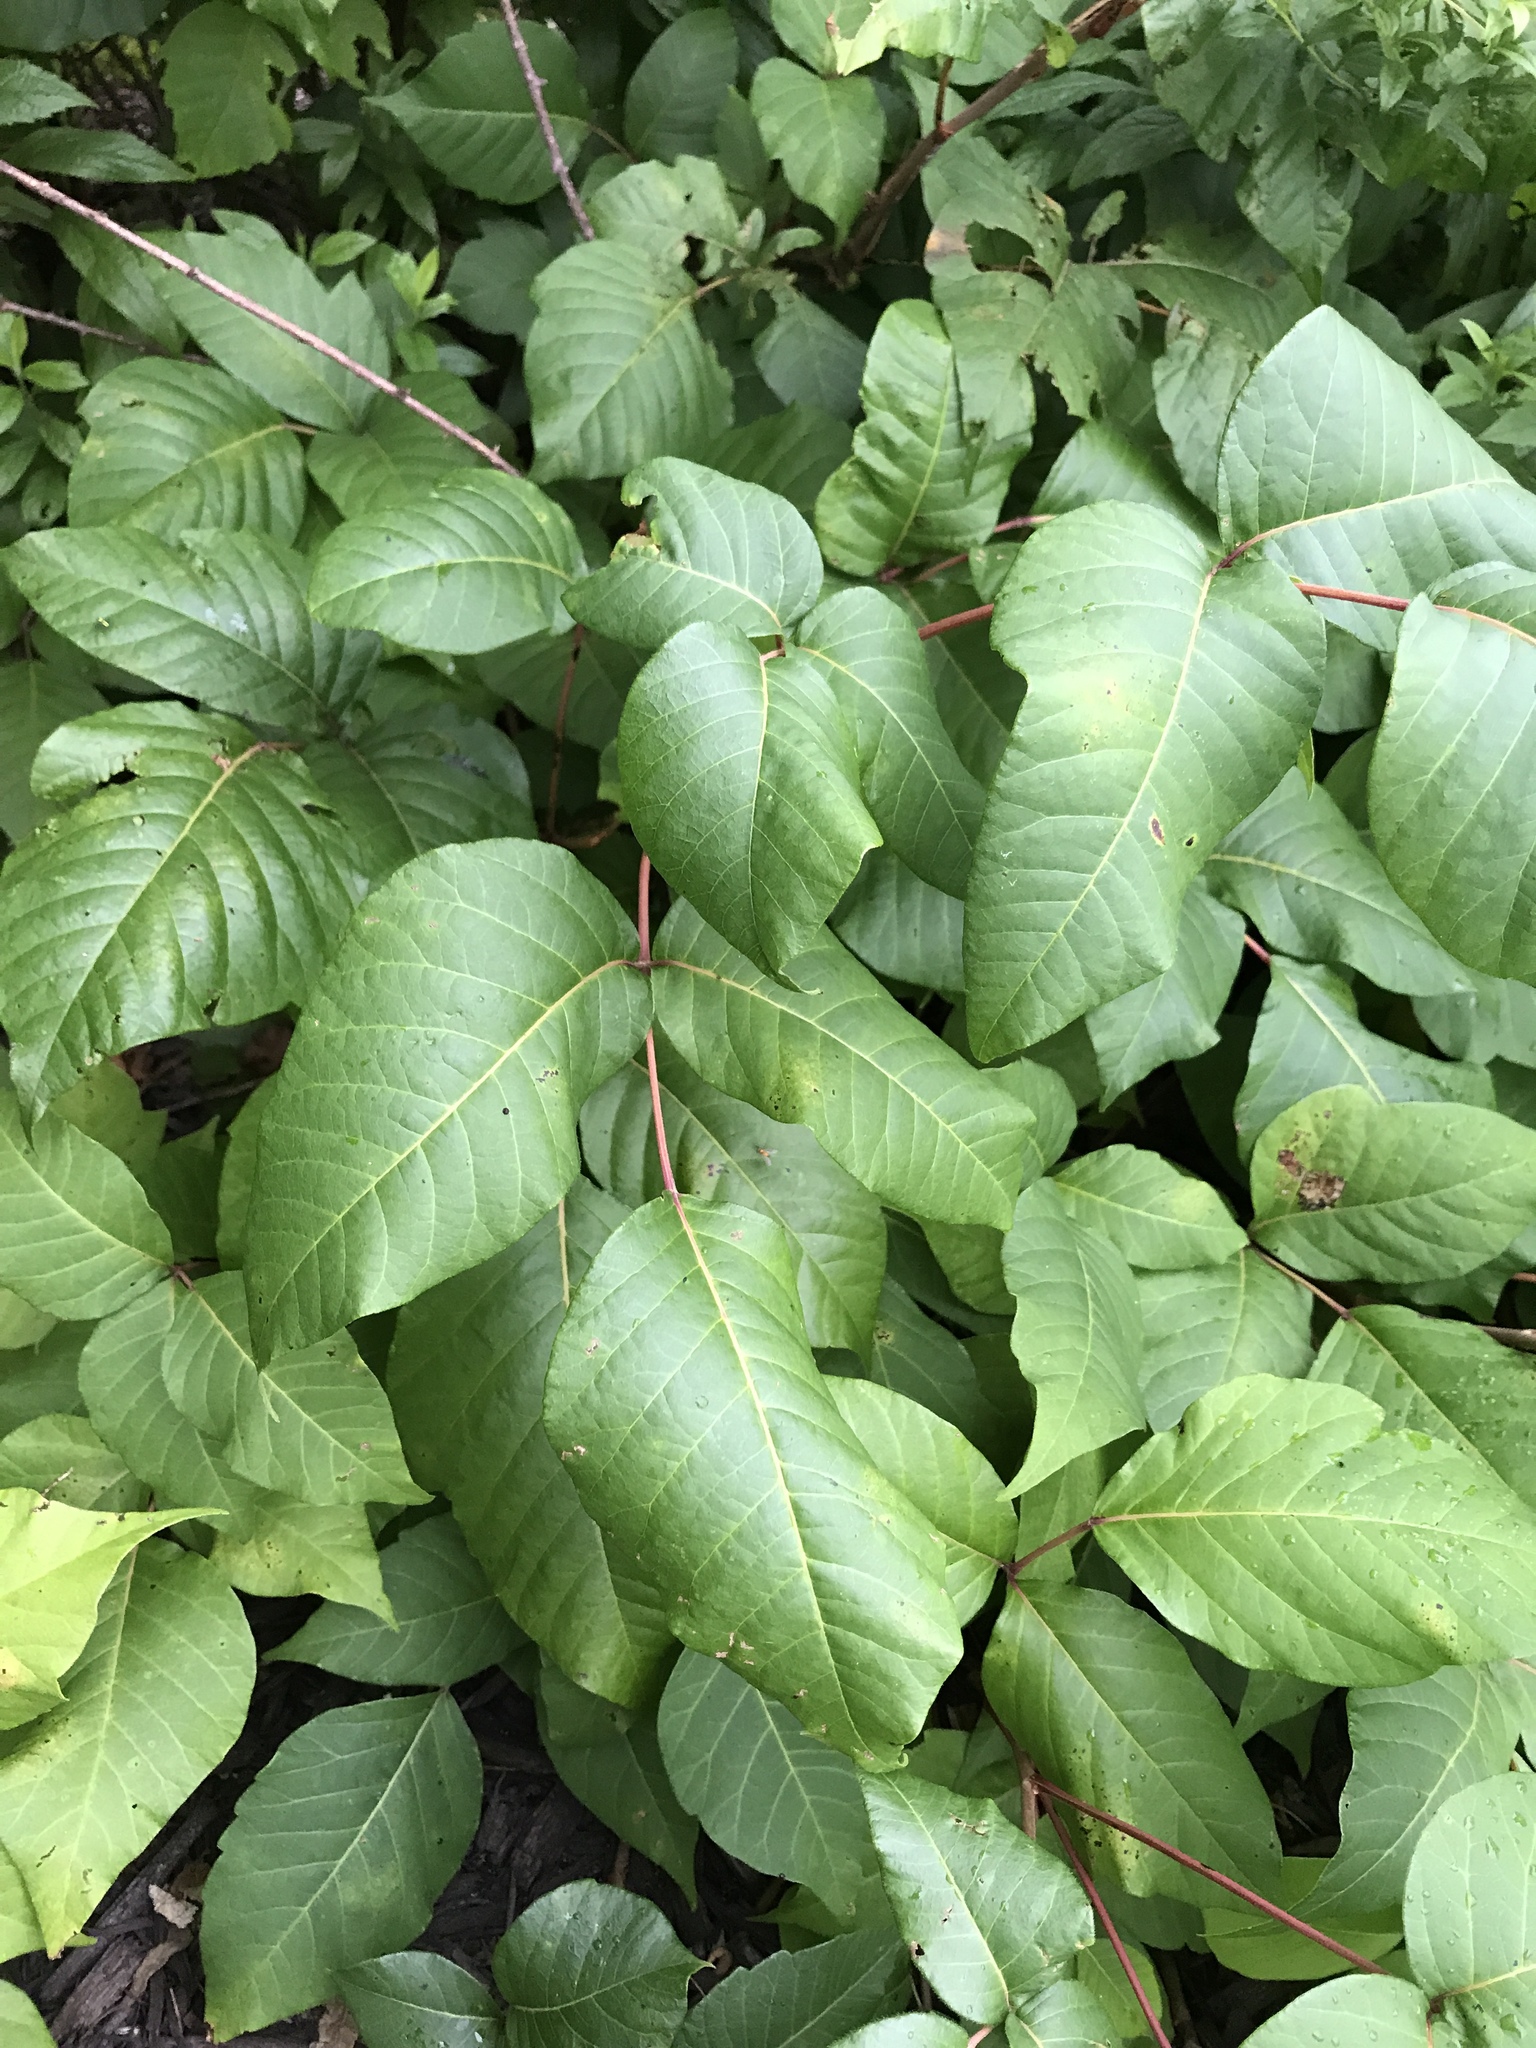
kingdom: Plantae
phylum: Tracheophyta
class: Magnoliopsida
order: Sapindales
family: Anacardiaceae
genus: Toxicodendron
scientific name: Toxicodendron radicans
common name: Poison ivy
